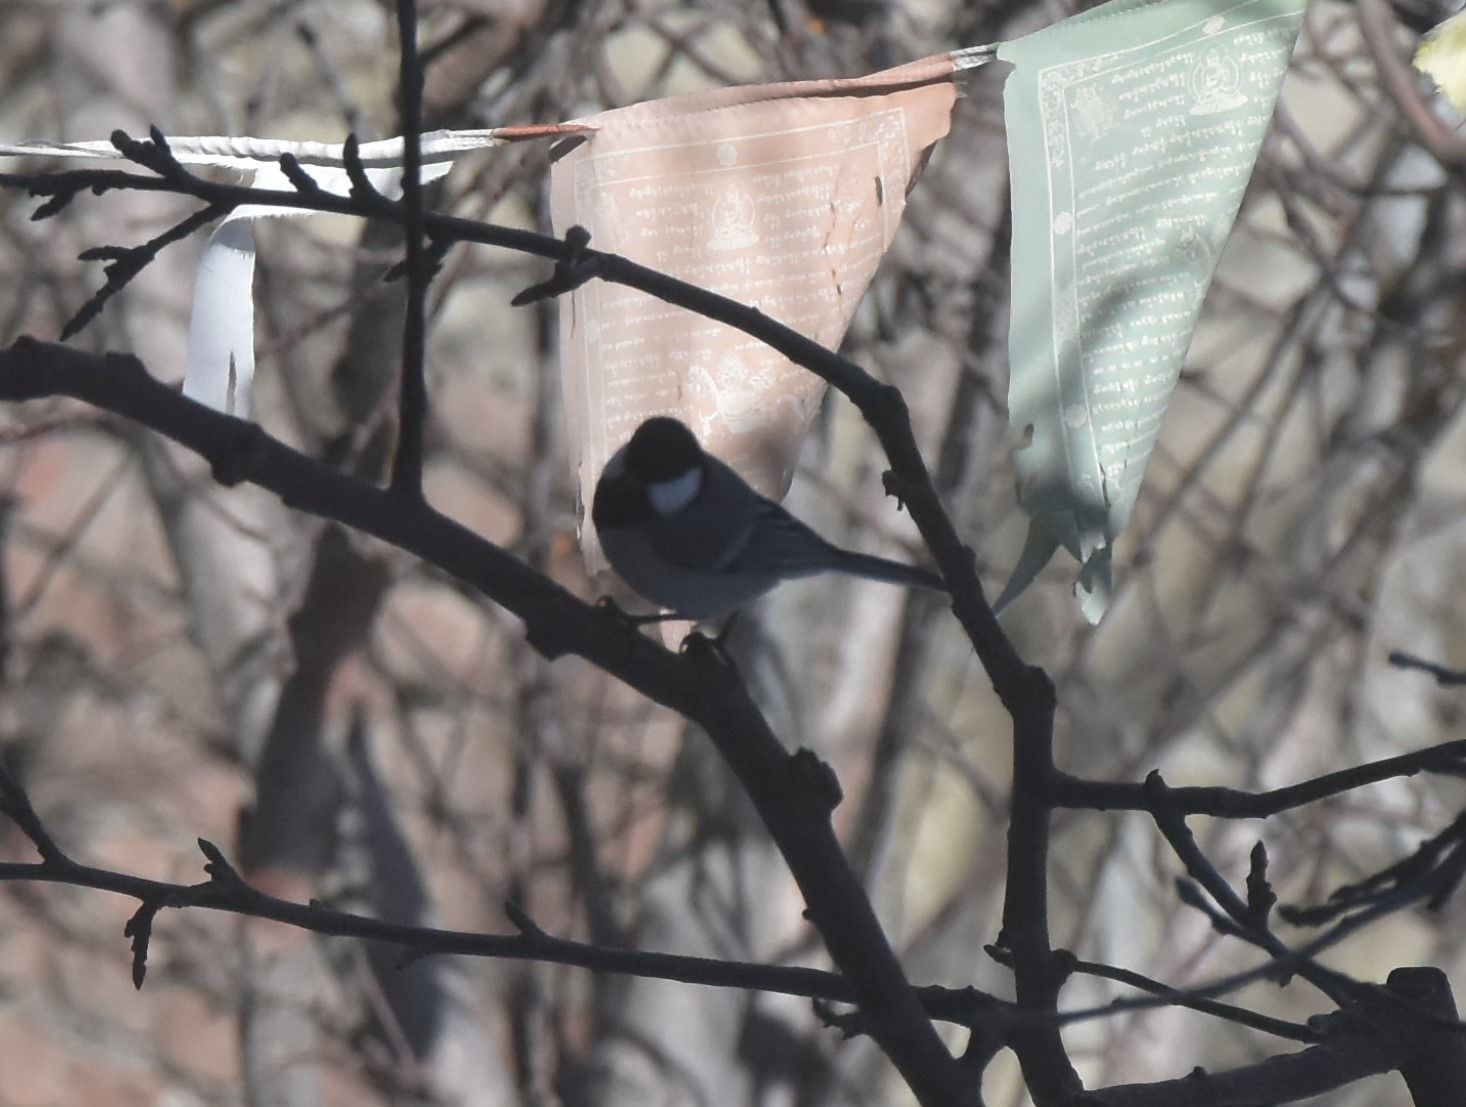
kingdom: Animalia
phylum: Chordata
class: Aves
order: Passeriformes
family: Paridae
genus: Parus
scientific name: Parus cinereus
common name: Cinereous tit
